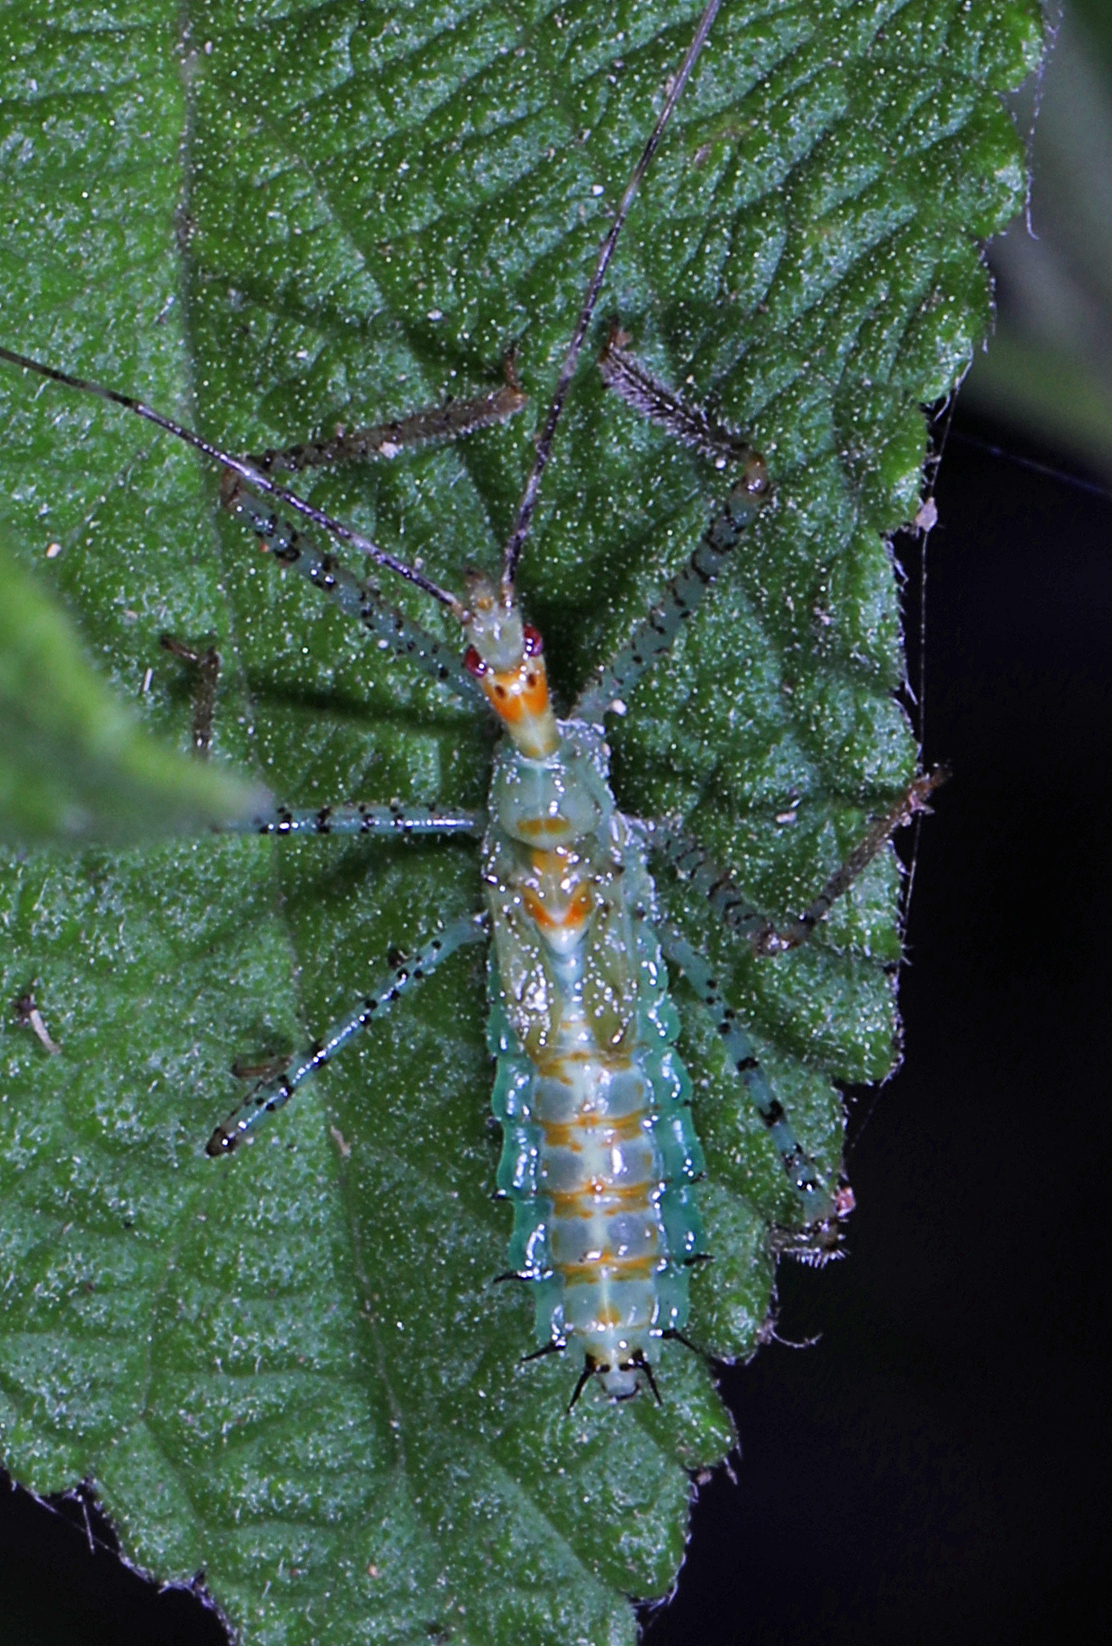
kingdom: Animalia
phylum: Arthropoda
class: Insecta
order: Hemiptera
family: Reduviidae
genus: Zelus
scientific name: Zelus renardii
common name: Assassin bug
